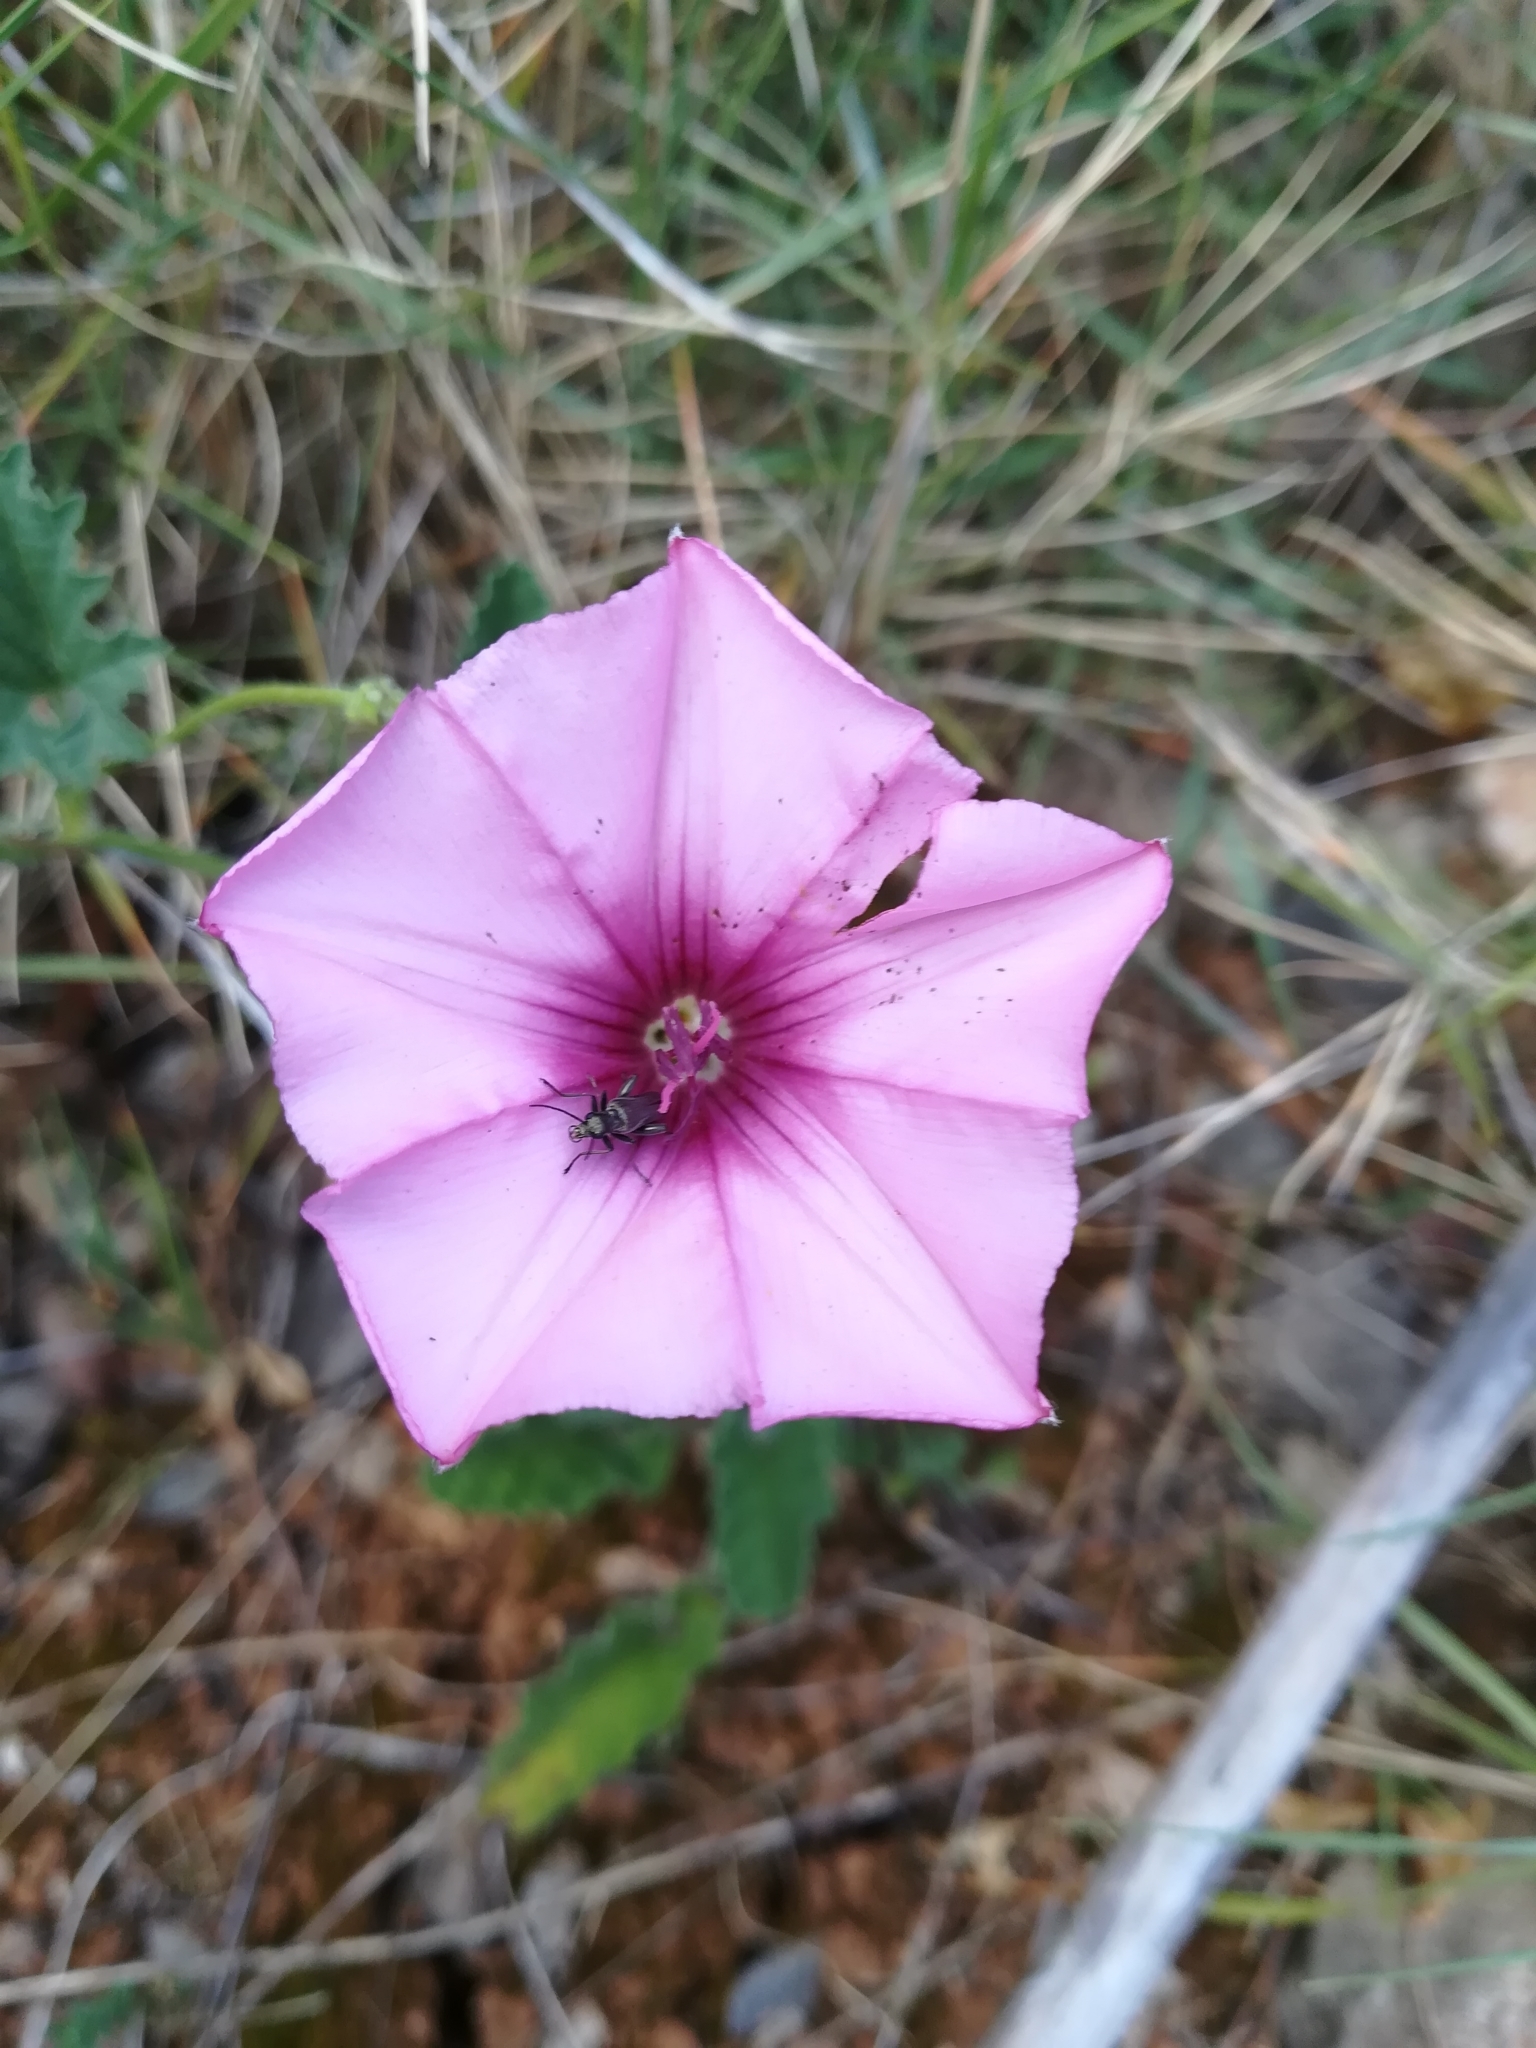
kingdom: Plantae
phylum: Tracheophyta
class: Magnoliopsida
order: Solanales
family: Convolvulaceae
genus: Convolvulus
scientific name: Convolvulus althaeoides
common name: Mallow bindweed
